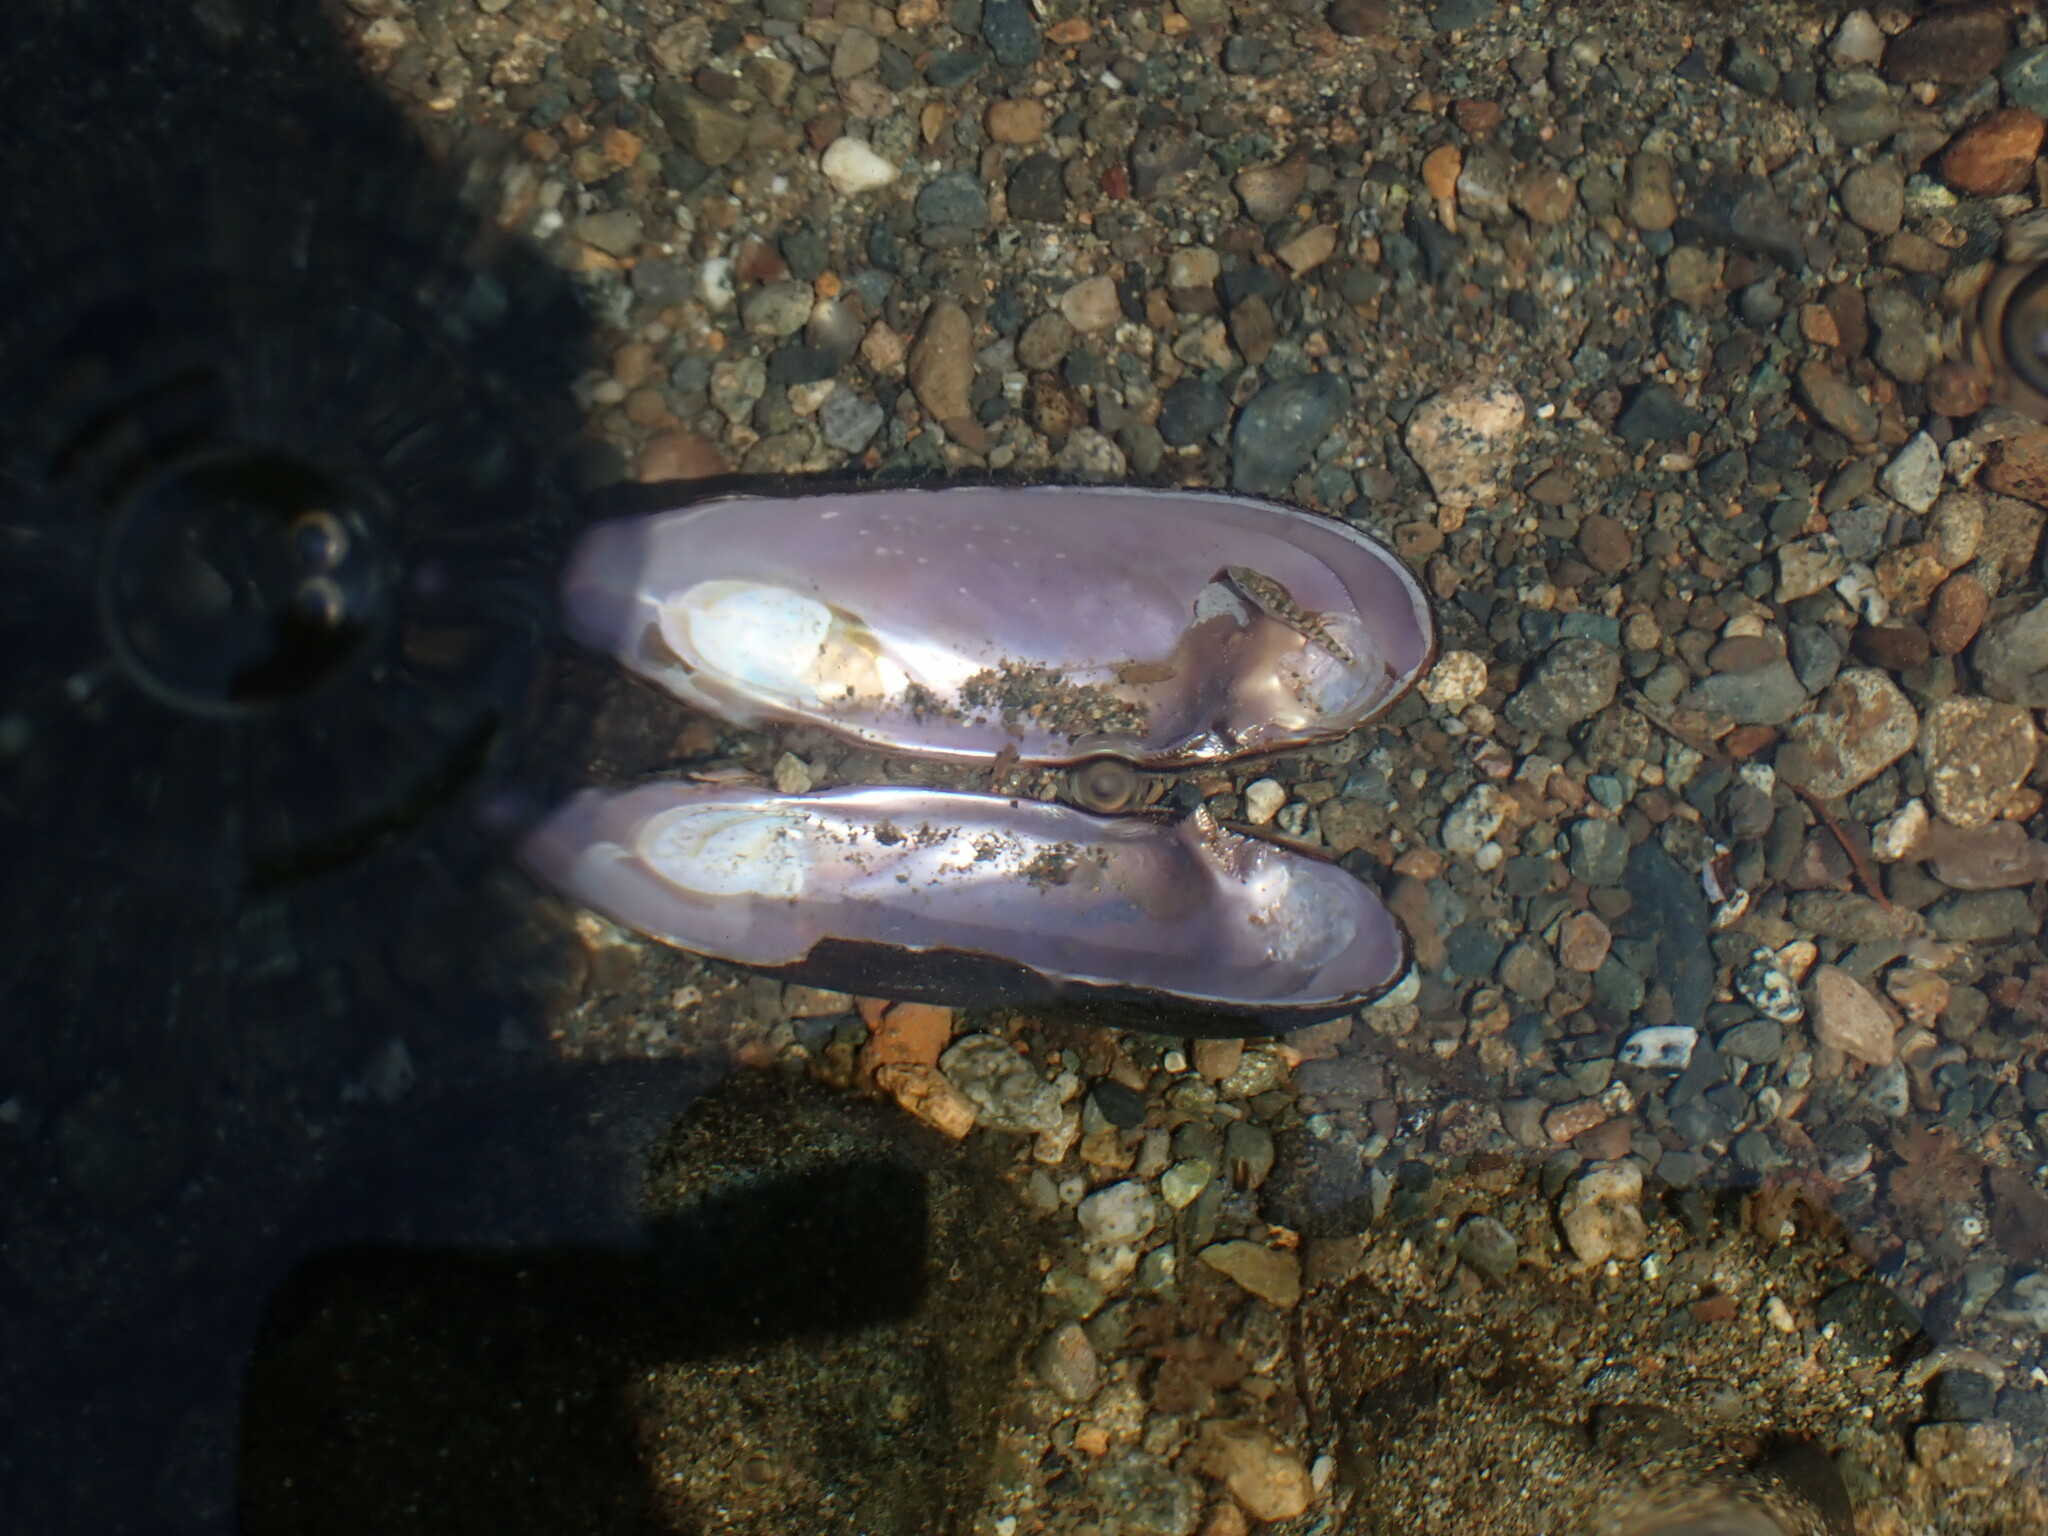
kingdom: Animalia
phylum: Mollusca
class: Bivalvia
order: Unionida
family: Margaritiferidae
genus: Margaritifera
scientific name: Margaritifera falcata
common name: Western pearlshell
